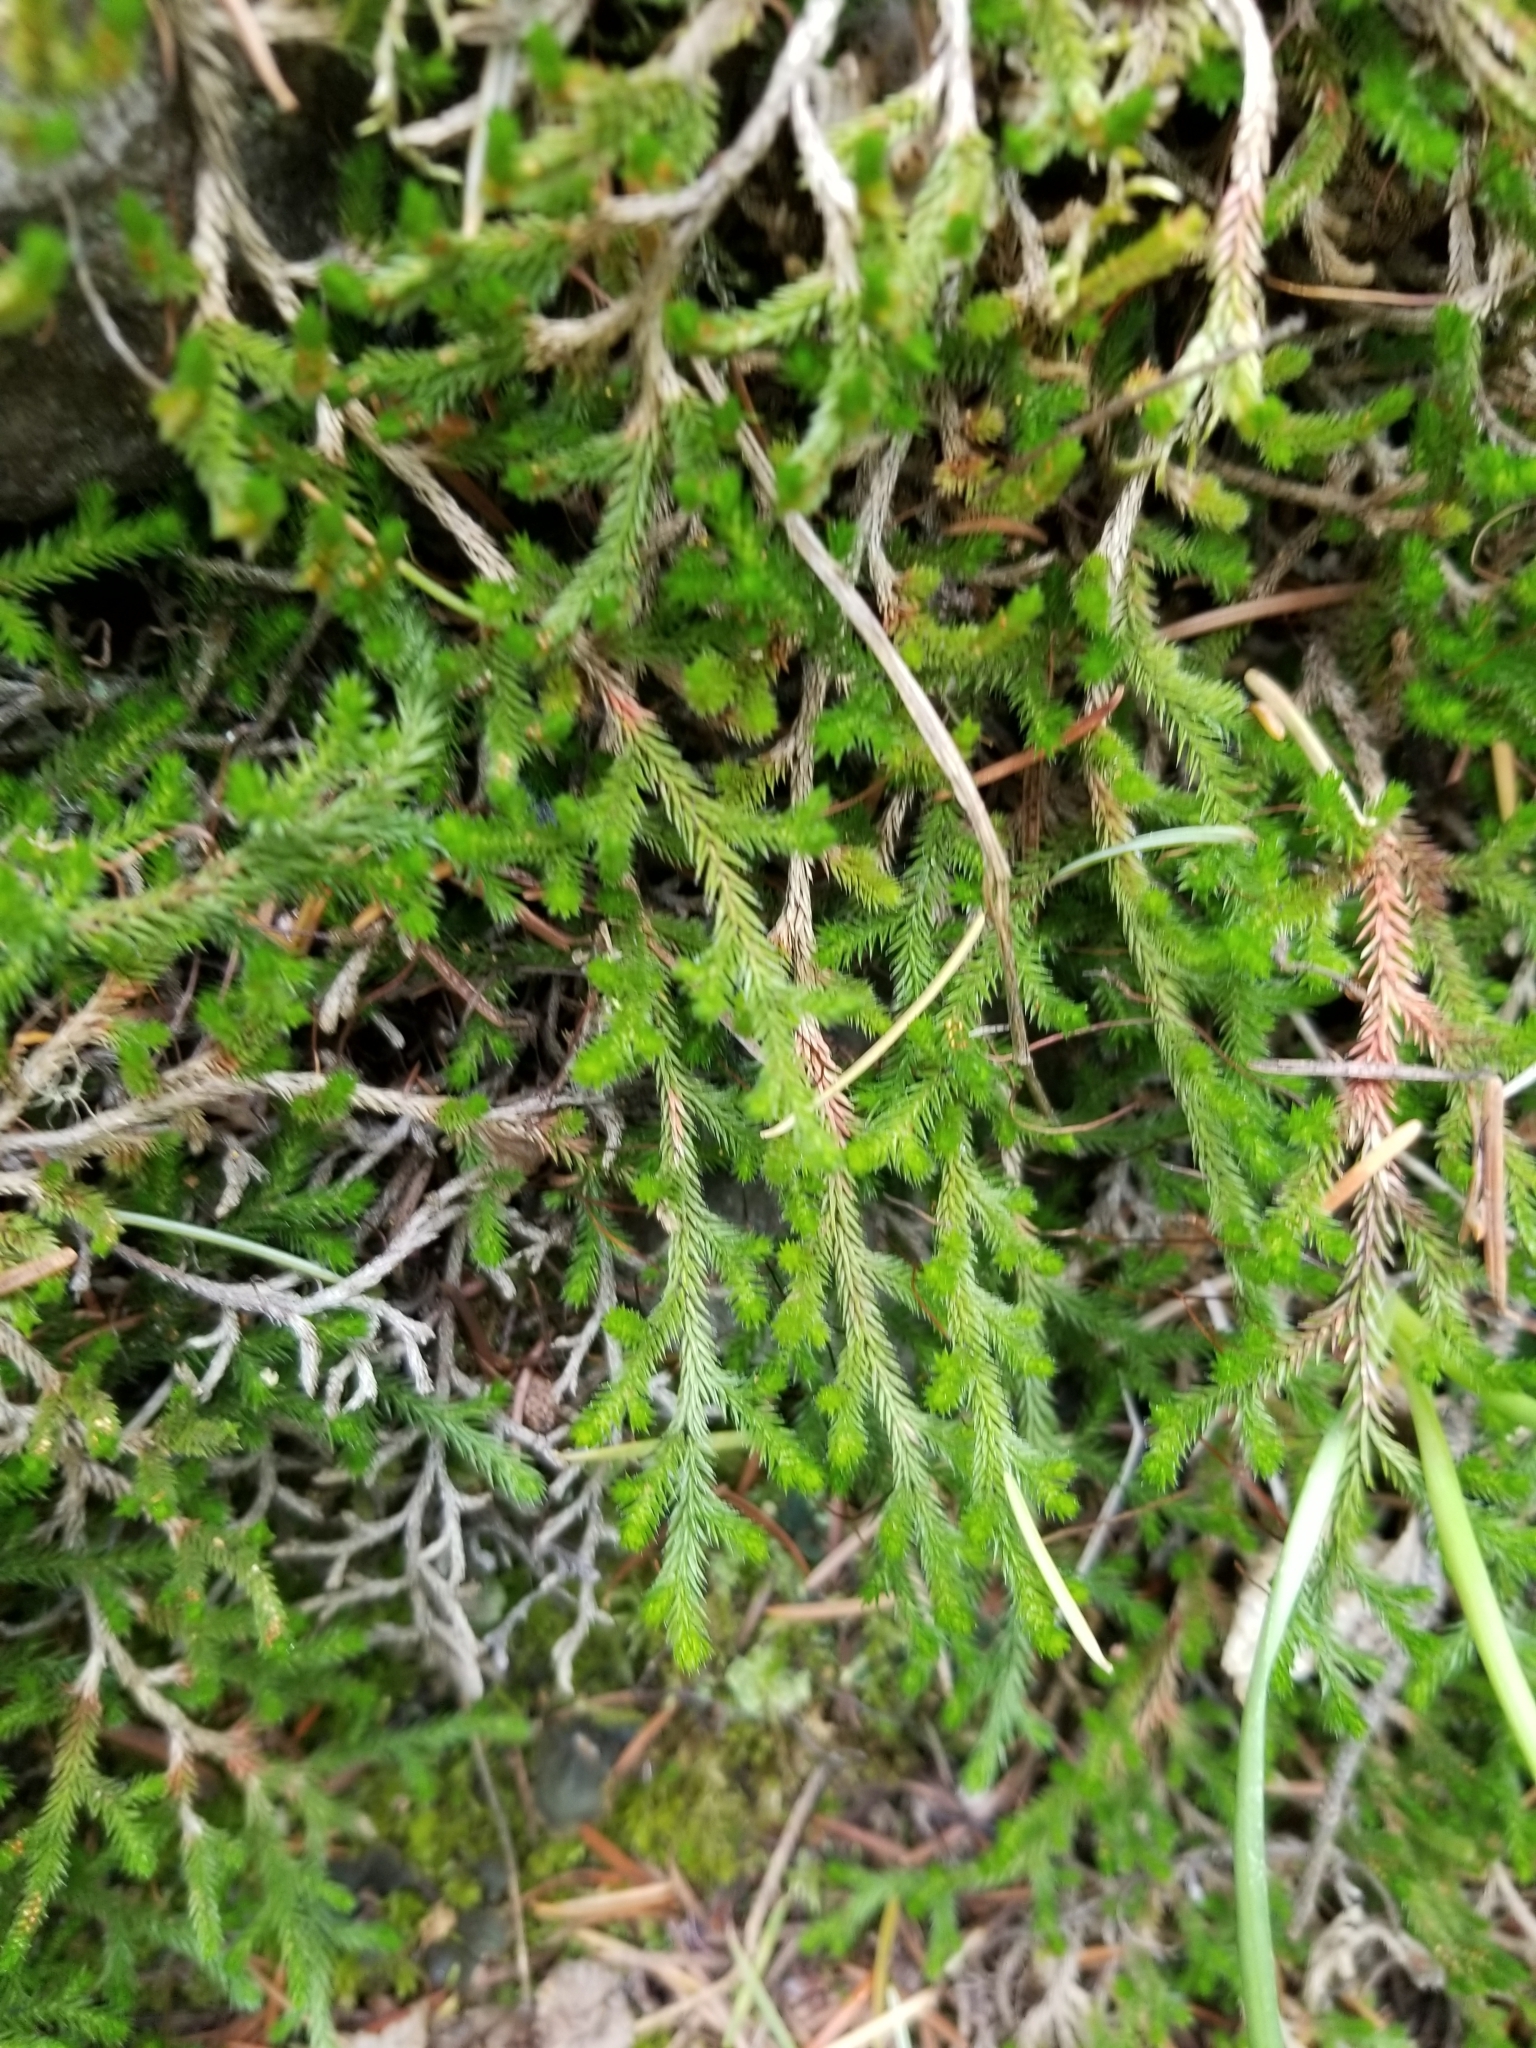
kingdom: Plantae
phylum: Tracheophyta
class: Lycopodiopsida
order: Selaginellales
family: Selaginellaceae
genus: Selaginella
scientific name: Selaginella wallacei
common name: Wallace's selaginella
